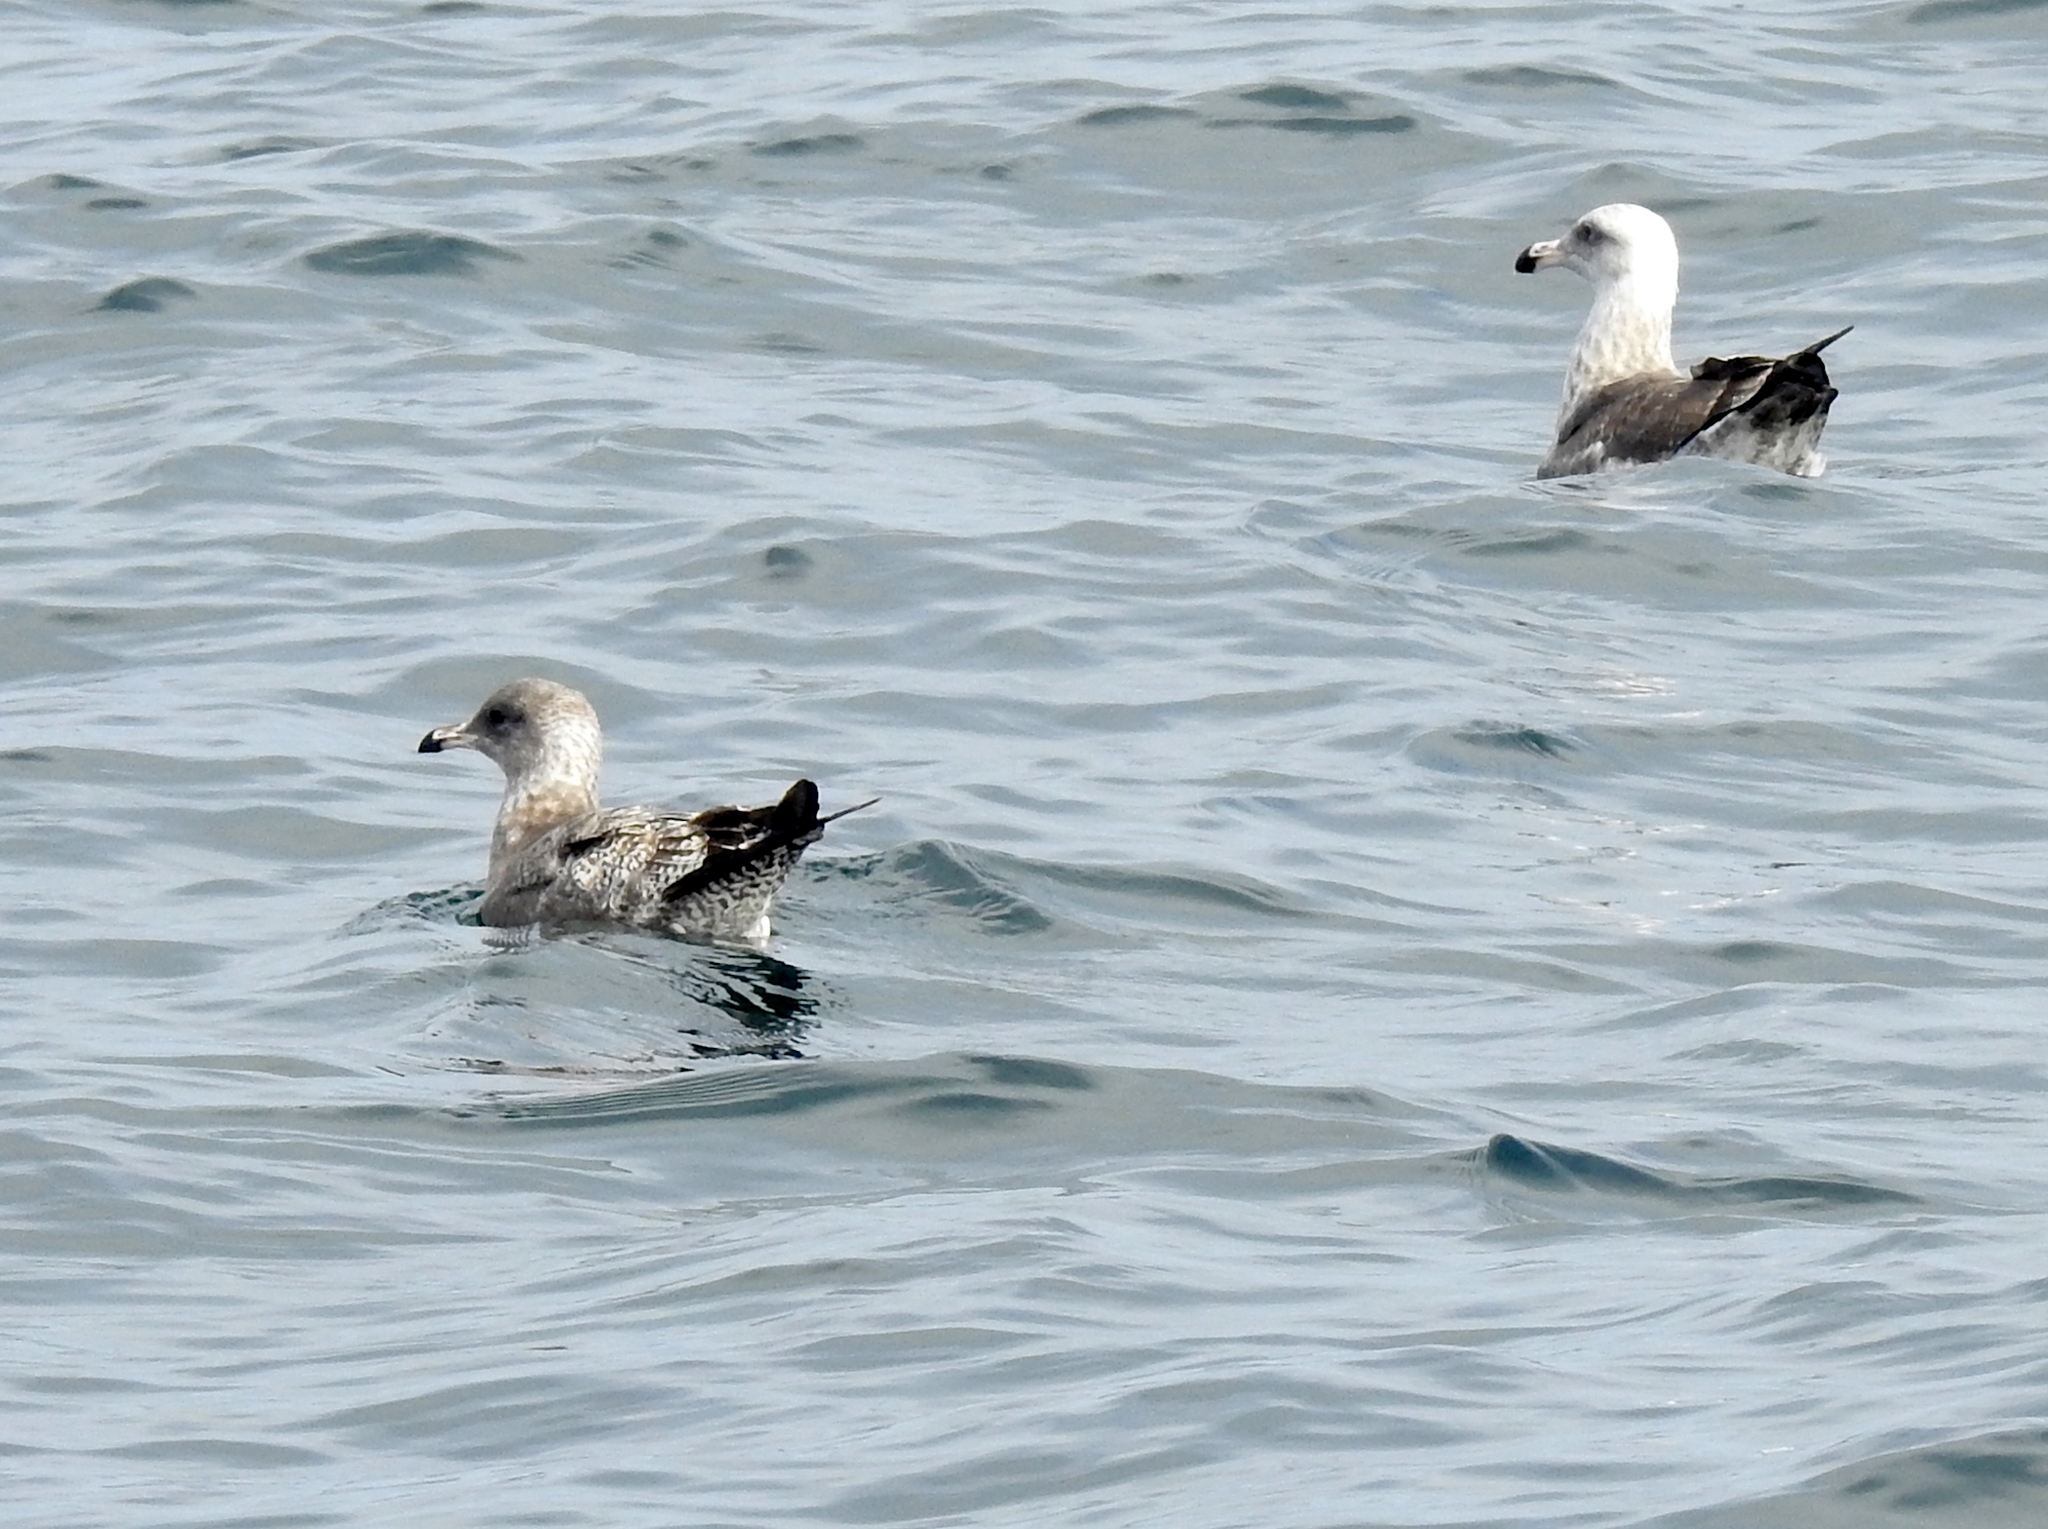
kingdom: Animalia
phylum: Chordata
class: Aves
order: Charadriiformes
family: Laridae
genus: Larus
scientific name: Larus californicus
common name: California gull
